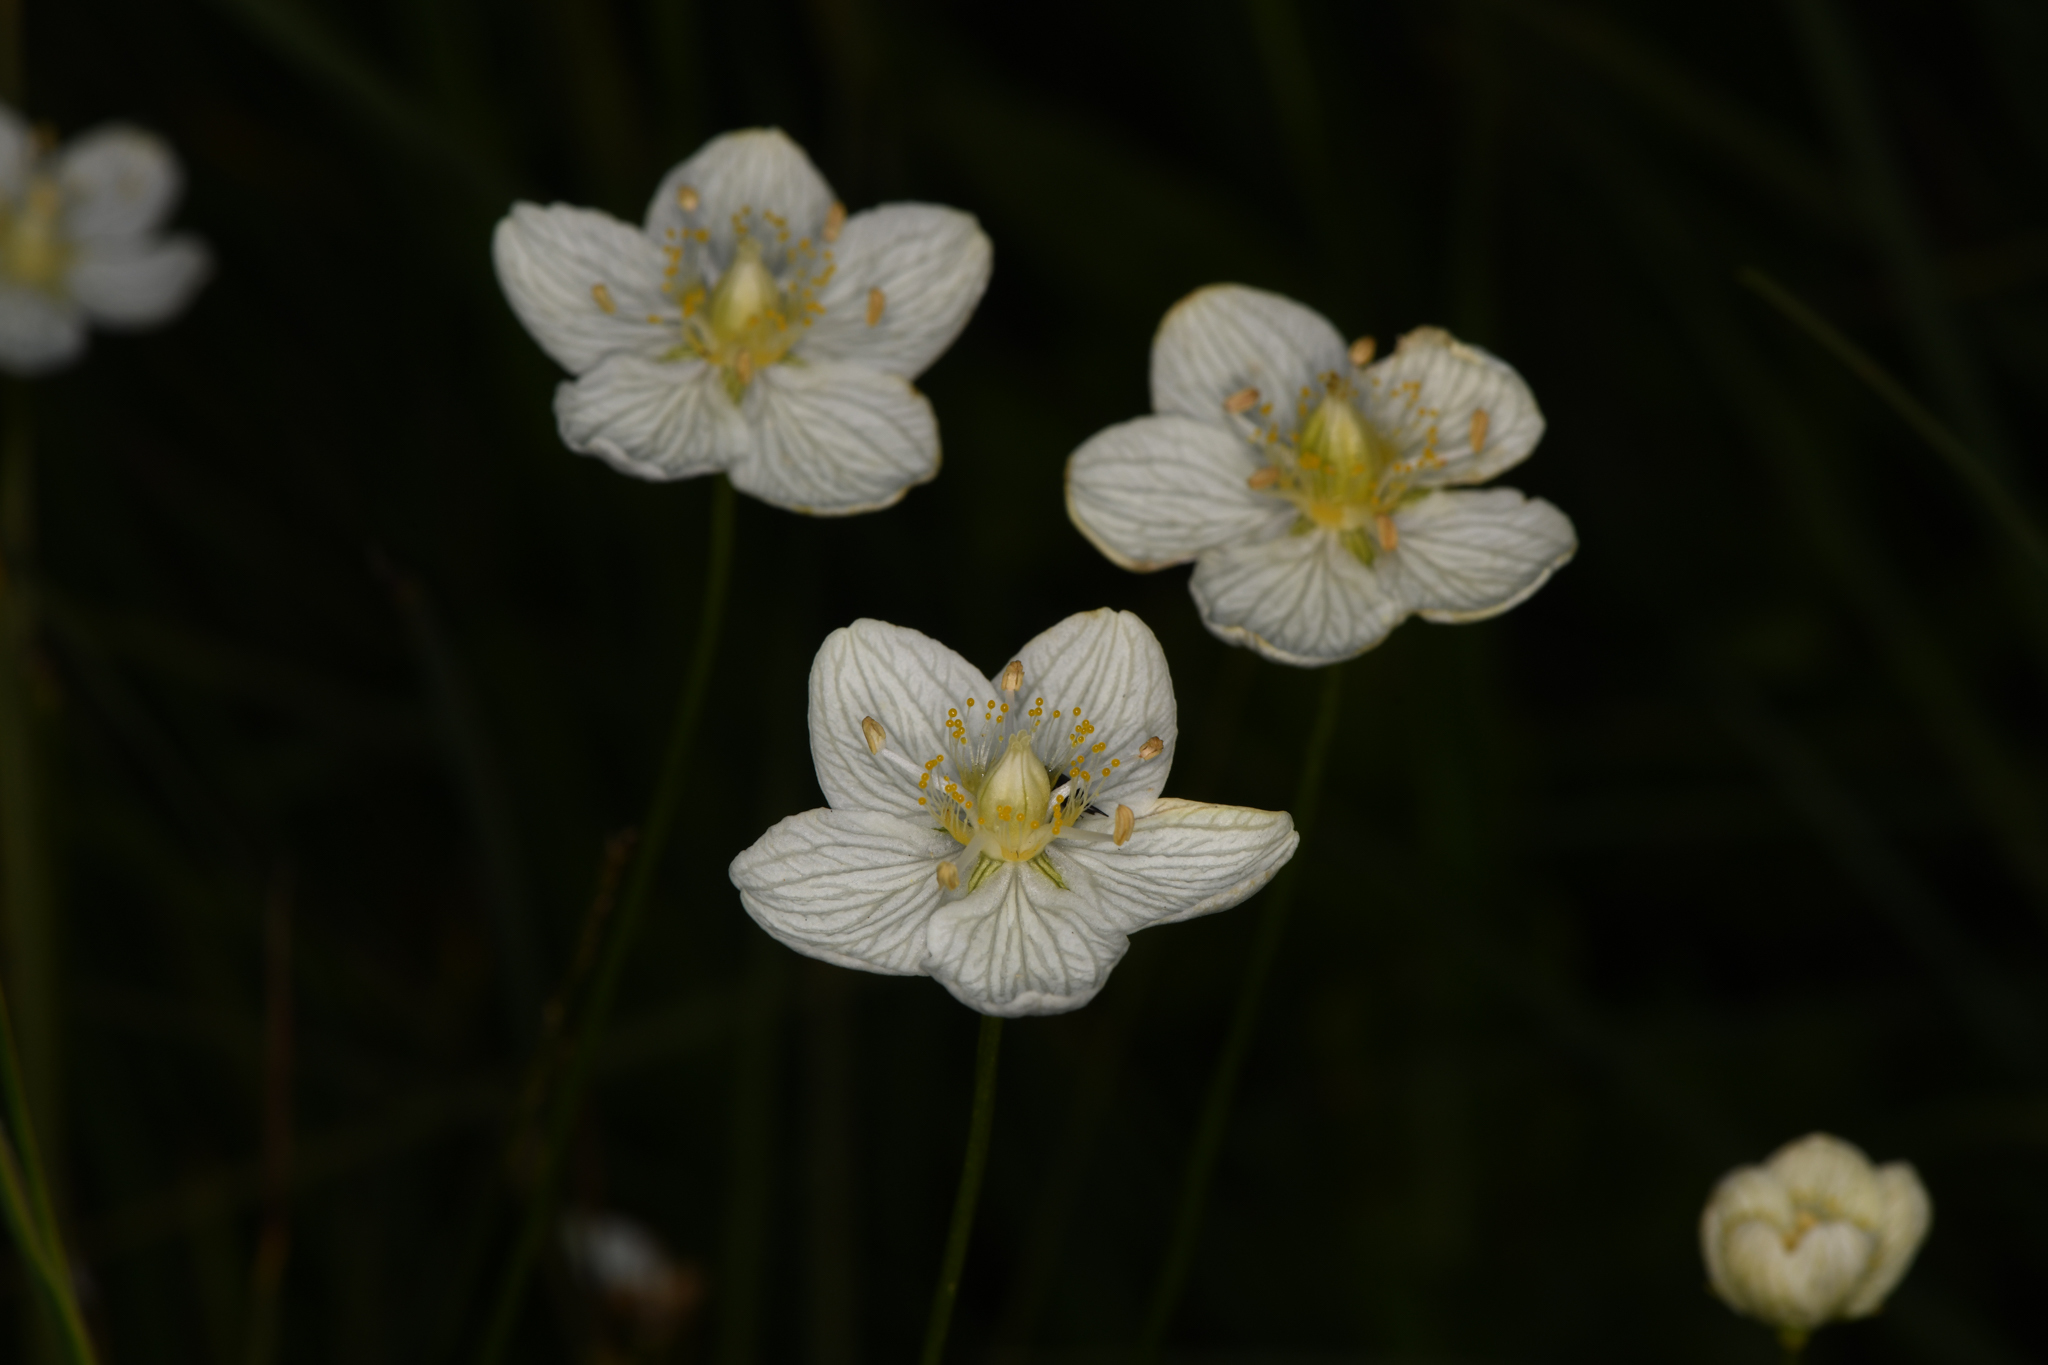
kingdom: Plantae
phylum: Tracheophyta
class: Magnoliopsida
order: Celastrales
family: Parnassiaceae
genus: Parnassia
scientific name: Parnassia palustris
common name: Grass-of-parnassus
